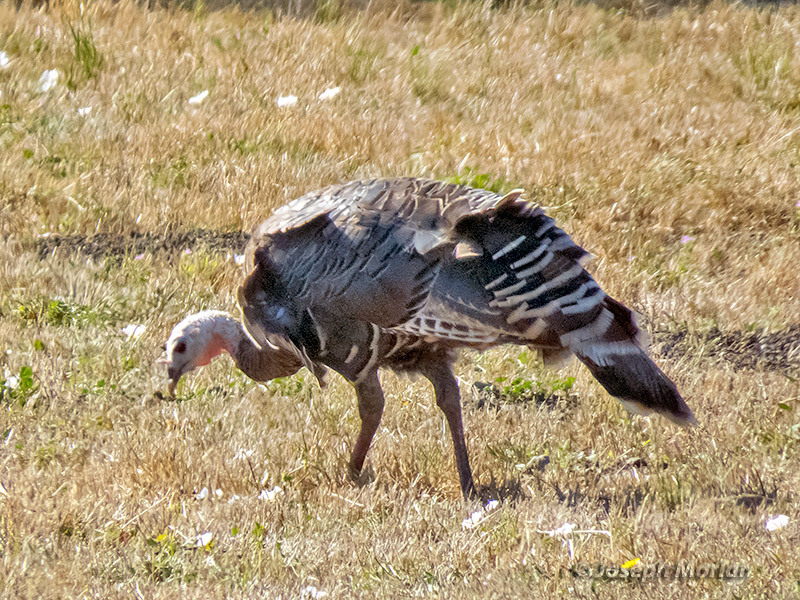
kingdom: Animalia
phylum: Chordata
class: Aves
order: Galliformes
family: Phasianidae
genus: Meleagris
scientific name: Meleagris gallopavo
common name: Wild turkey
